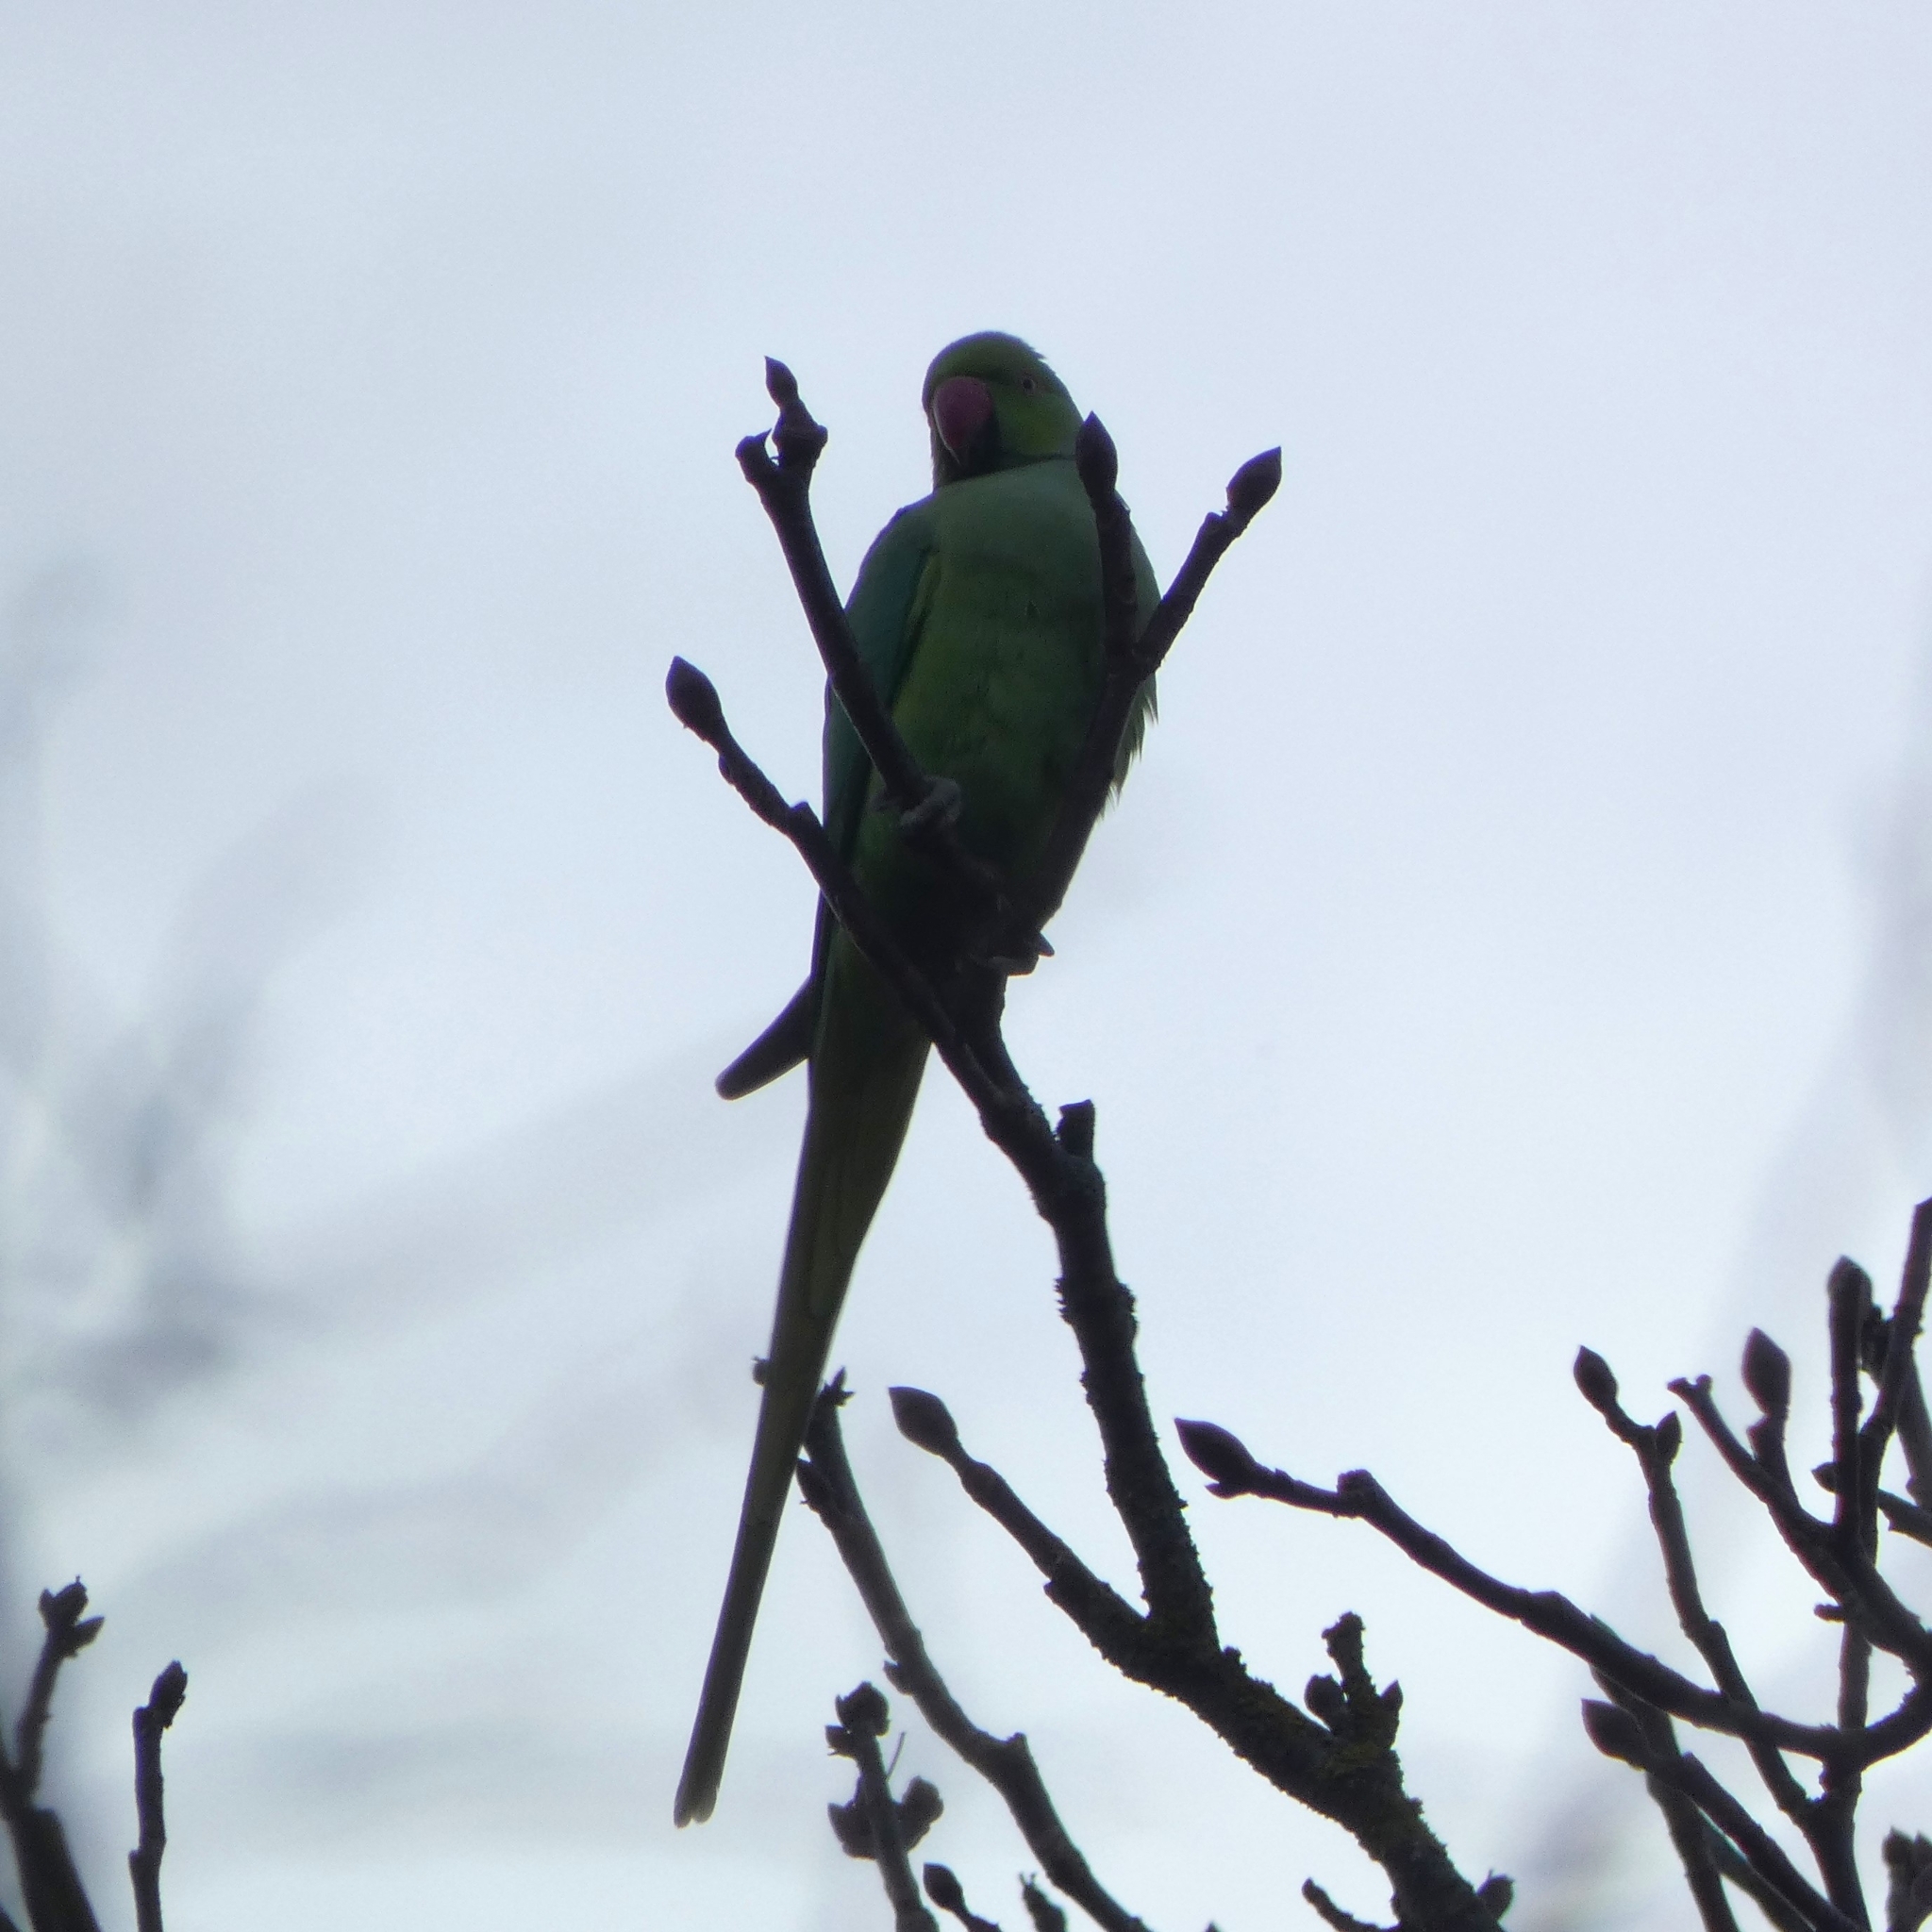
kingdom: Animalia
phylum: Chordata
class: Aves
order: Psittaciformes
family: Psittacidae
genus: Psittacula
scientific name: Psittacula krameri
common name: Rose-ringed parakeet
